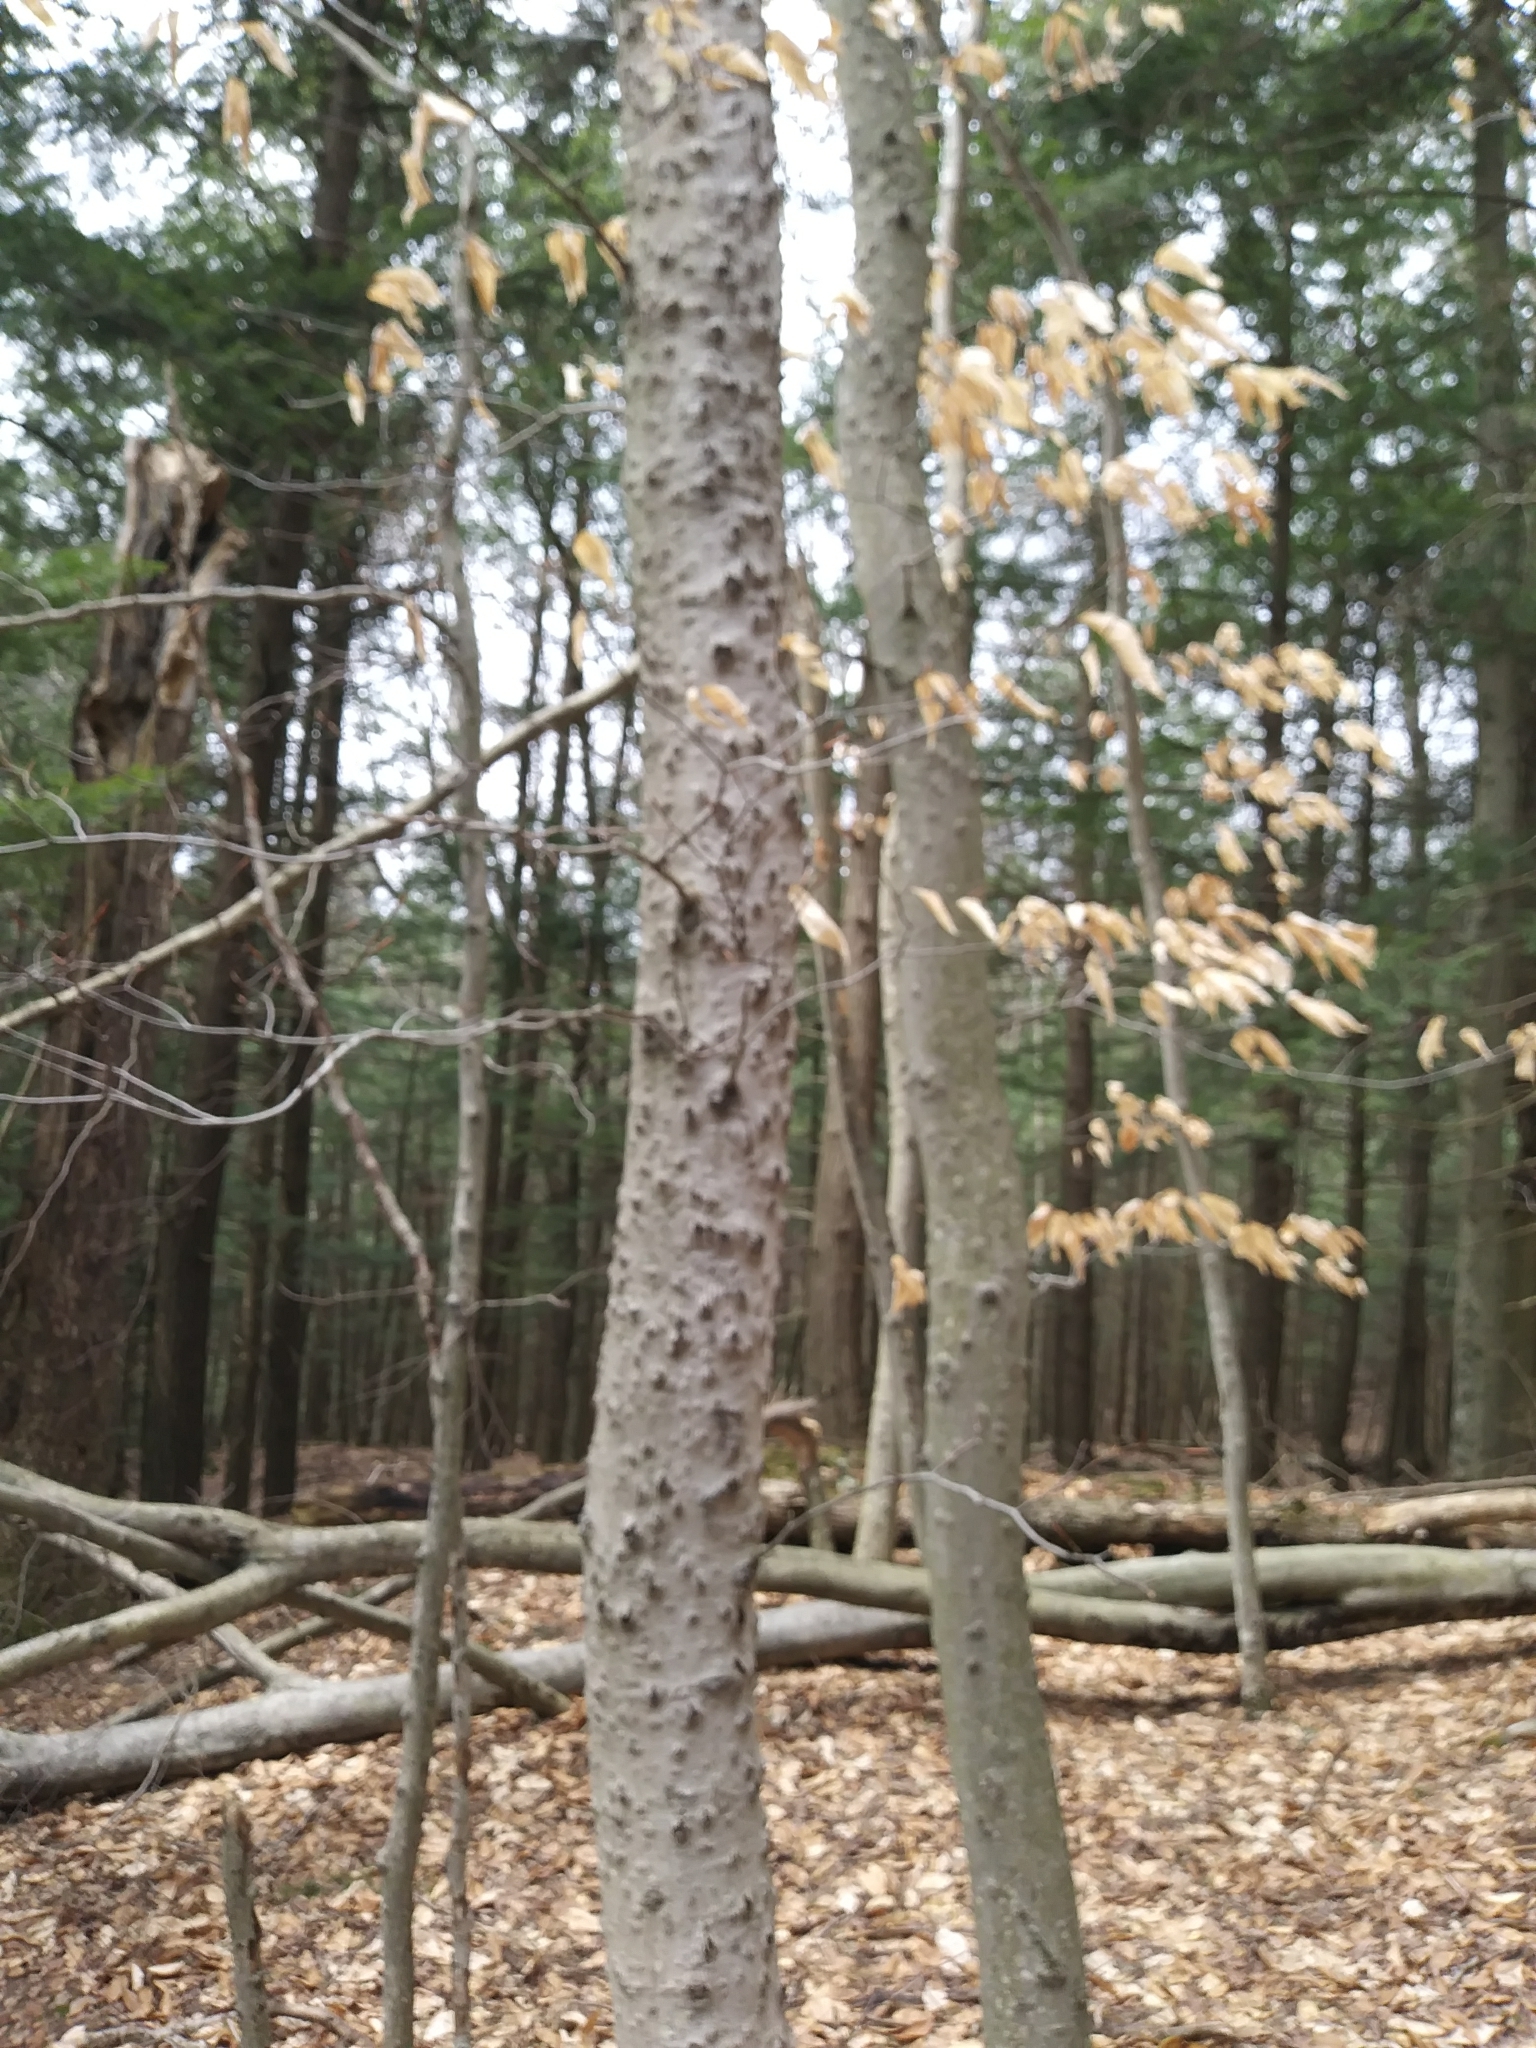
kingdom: Animalia
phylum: Arthropoda
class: Insecta
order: Hemiptera
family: Eriococcidae
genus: Cryptococcus
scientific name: Cryptococcus fagisuga
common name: Beech scale
